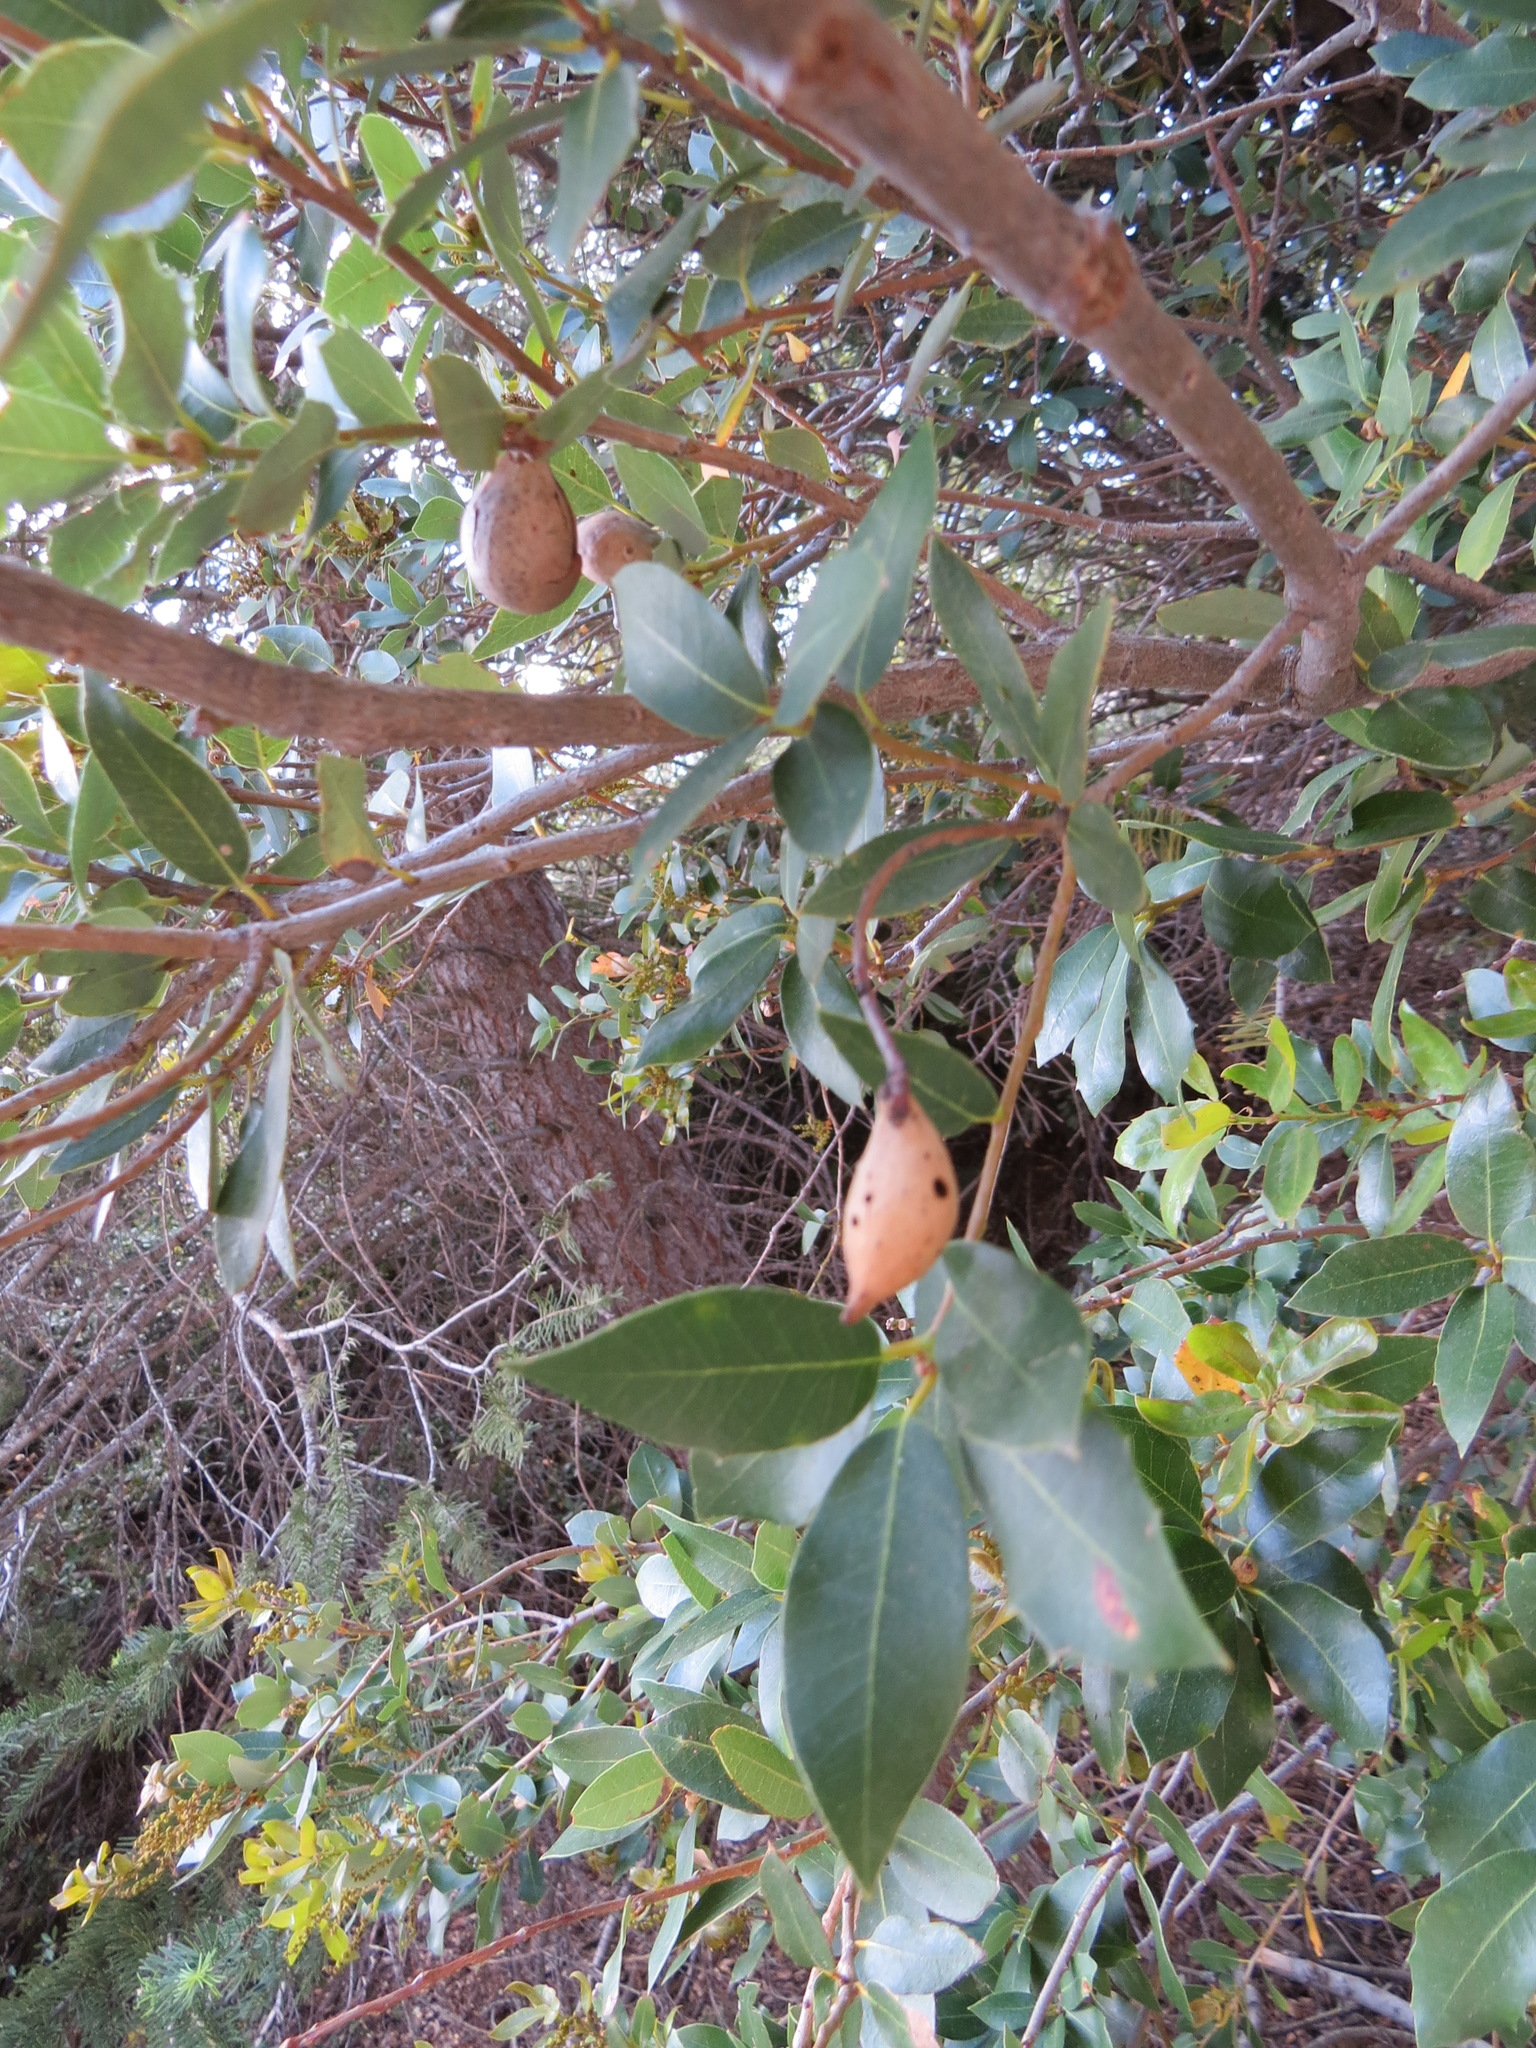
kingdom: Animalia
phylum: Arthropoda
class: Insecta
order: Hymenoptera
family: Cynipidae
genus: Heteroecus
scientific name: Heteroecus pacificus
